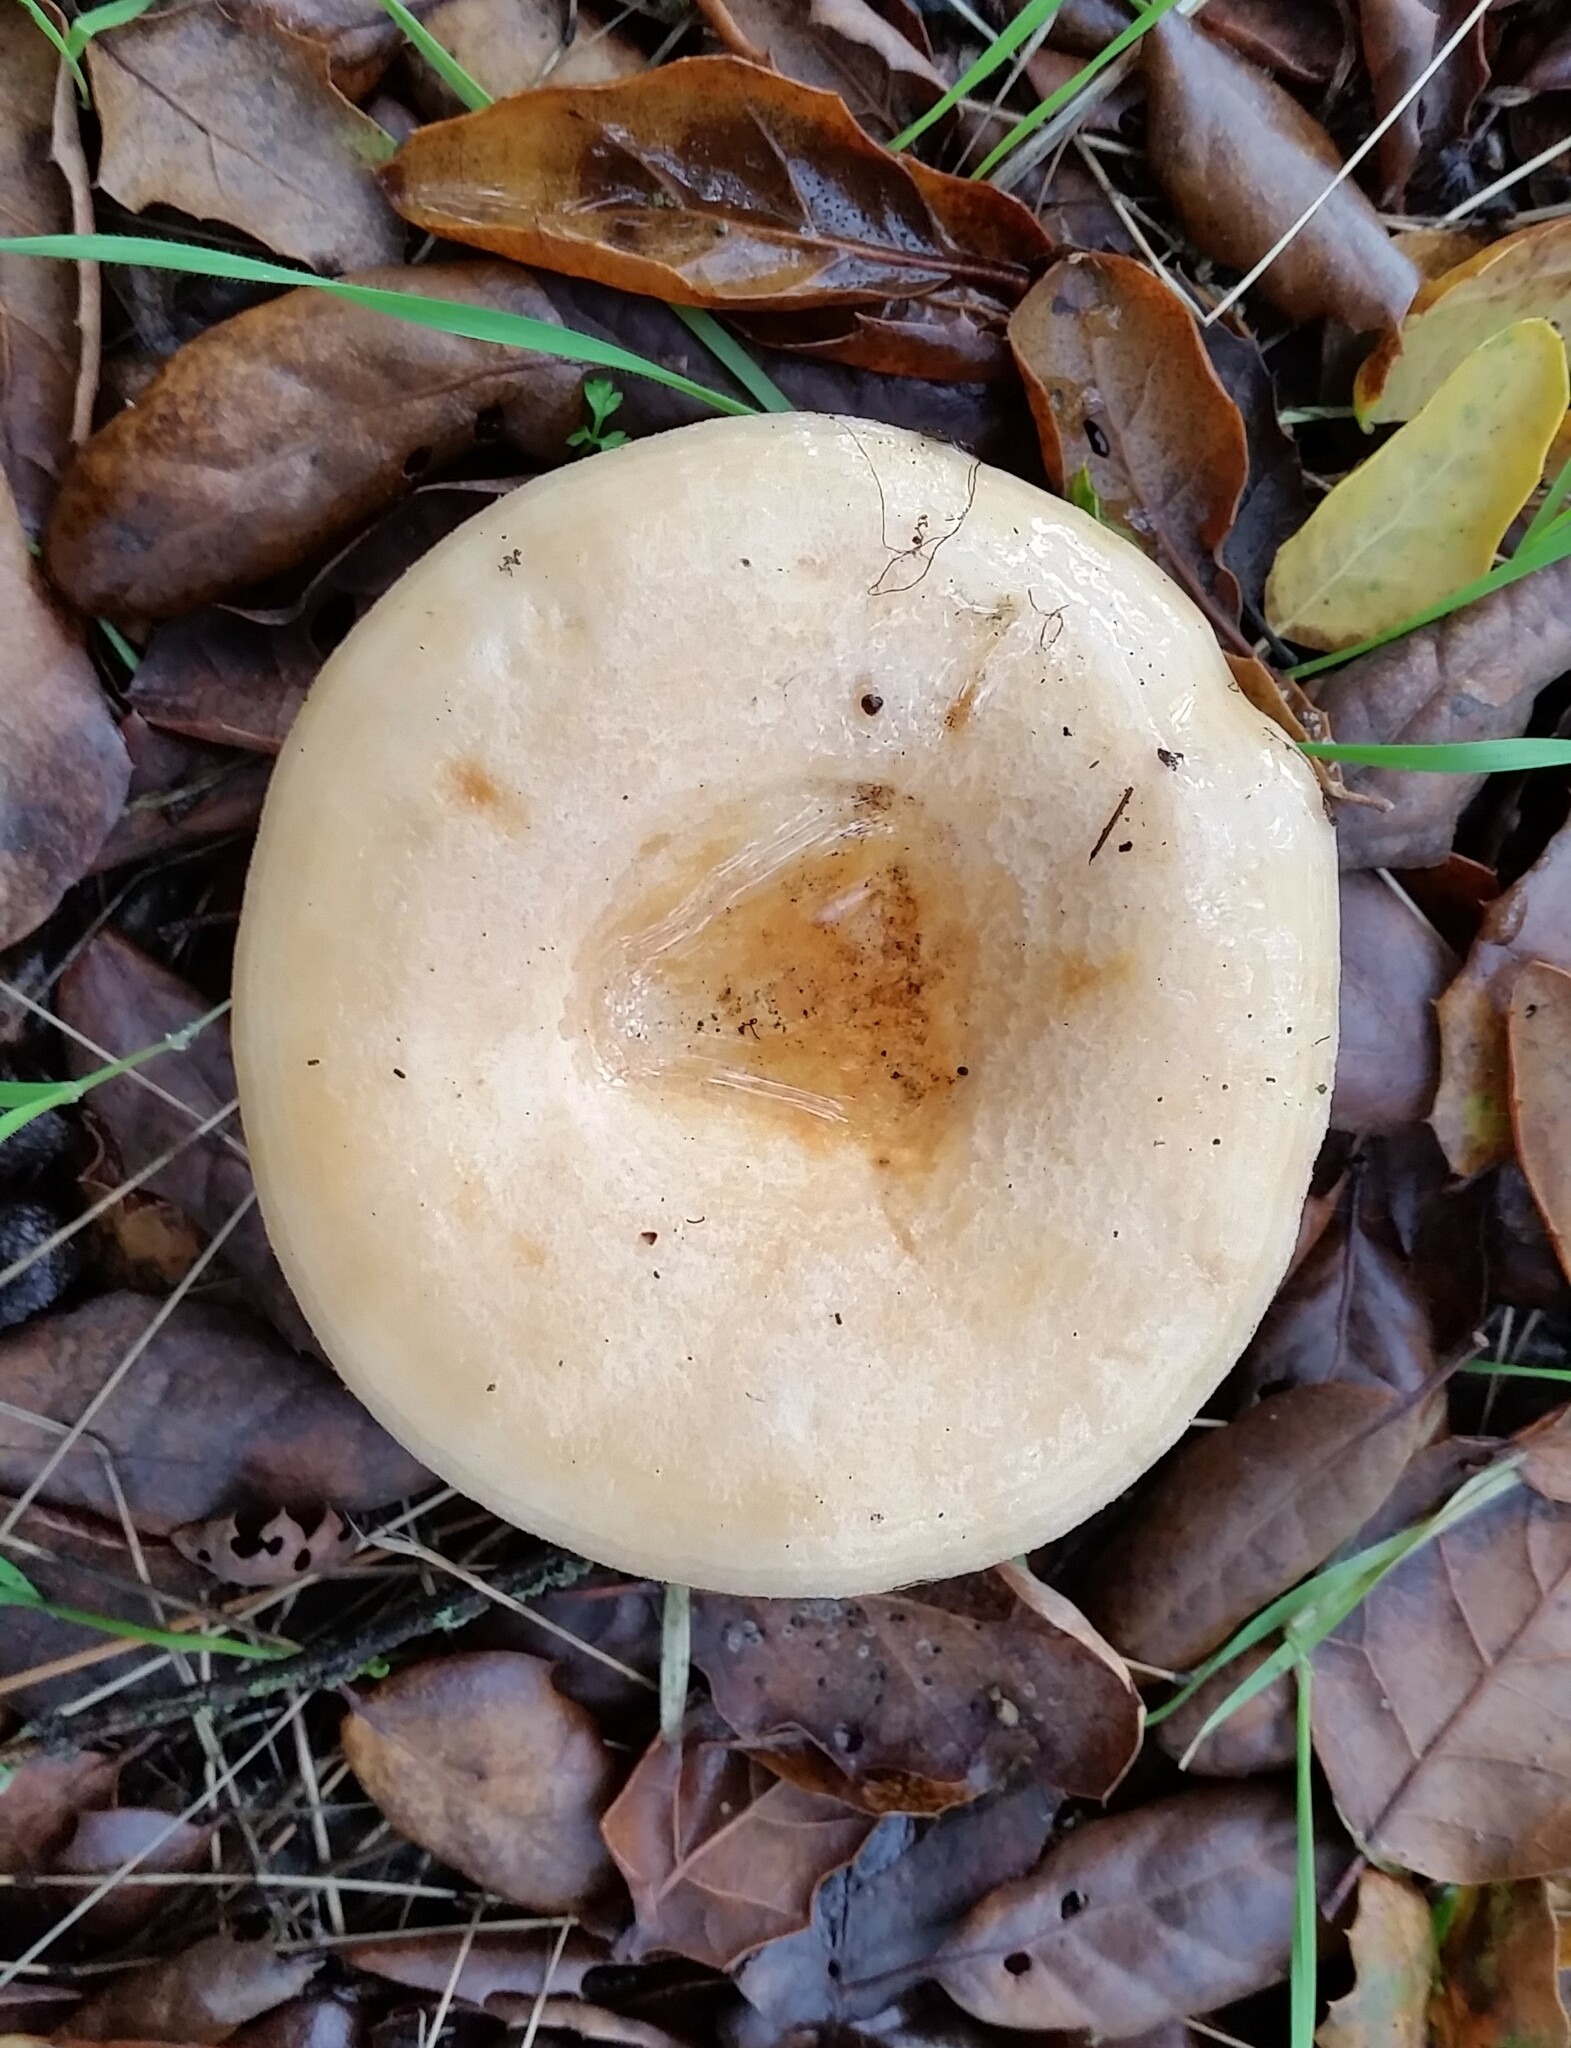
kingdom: Fungi
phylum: Basidiomycota
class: Agaricomycetes
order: Russulales
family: Russulaceae
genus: Lactarius
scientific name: Lactarius alnicola
